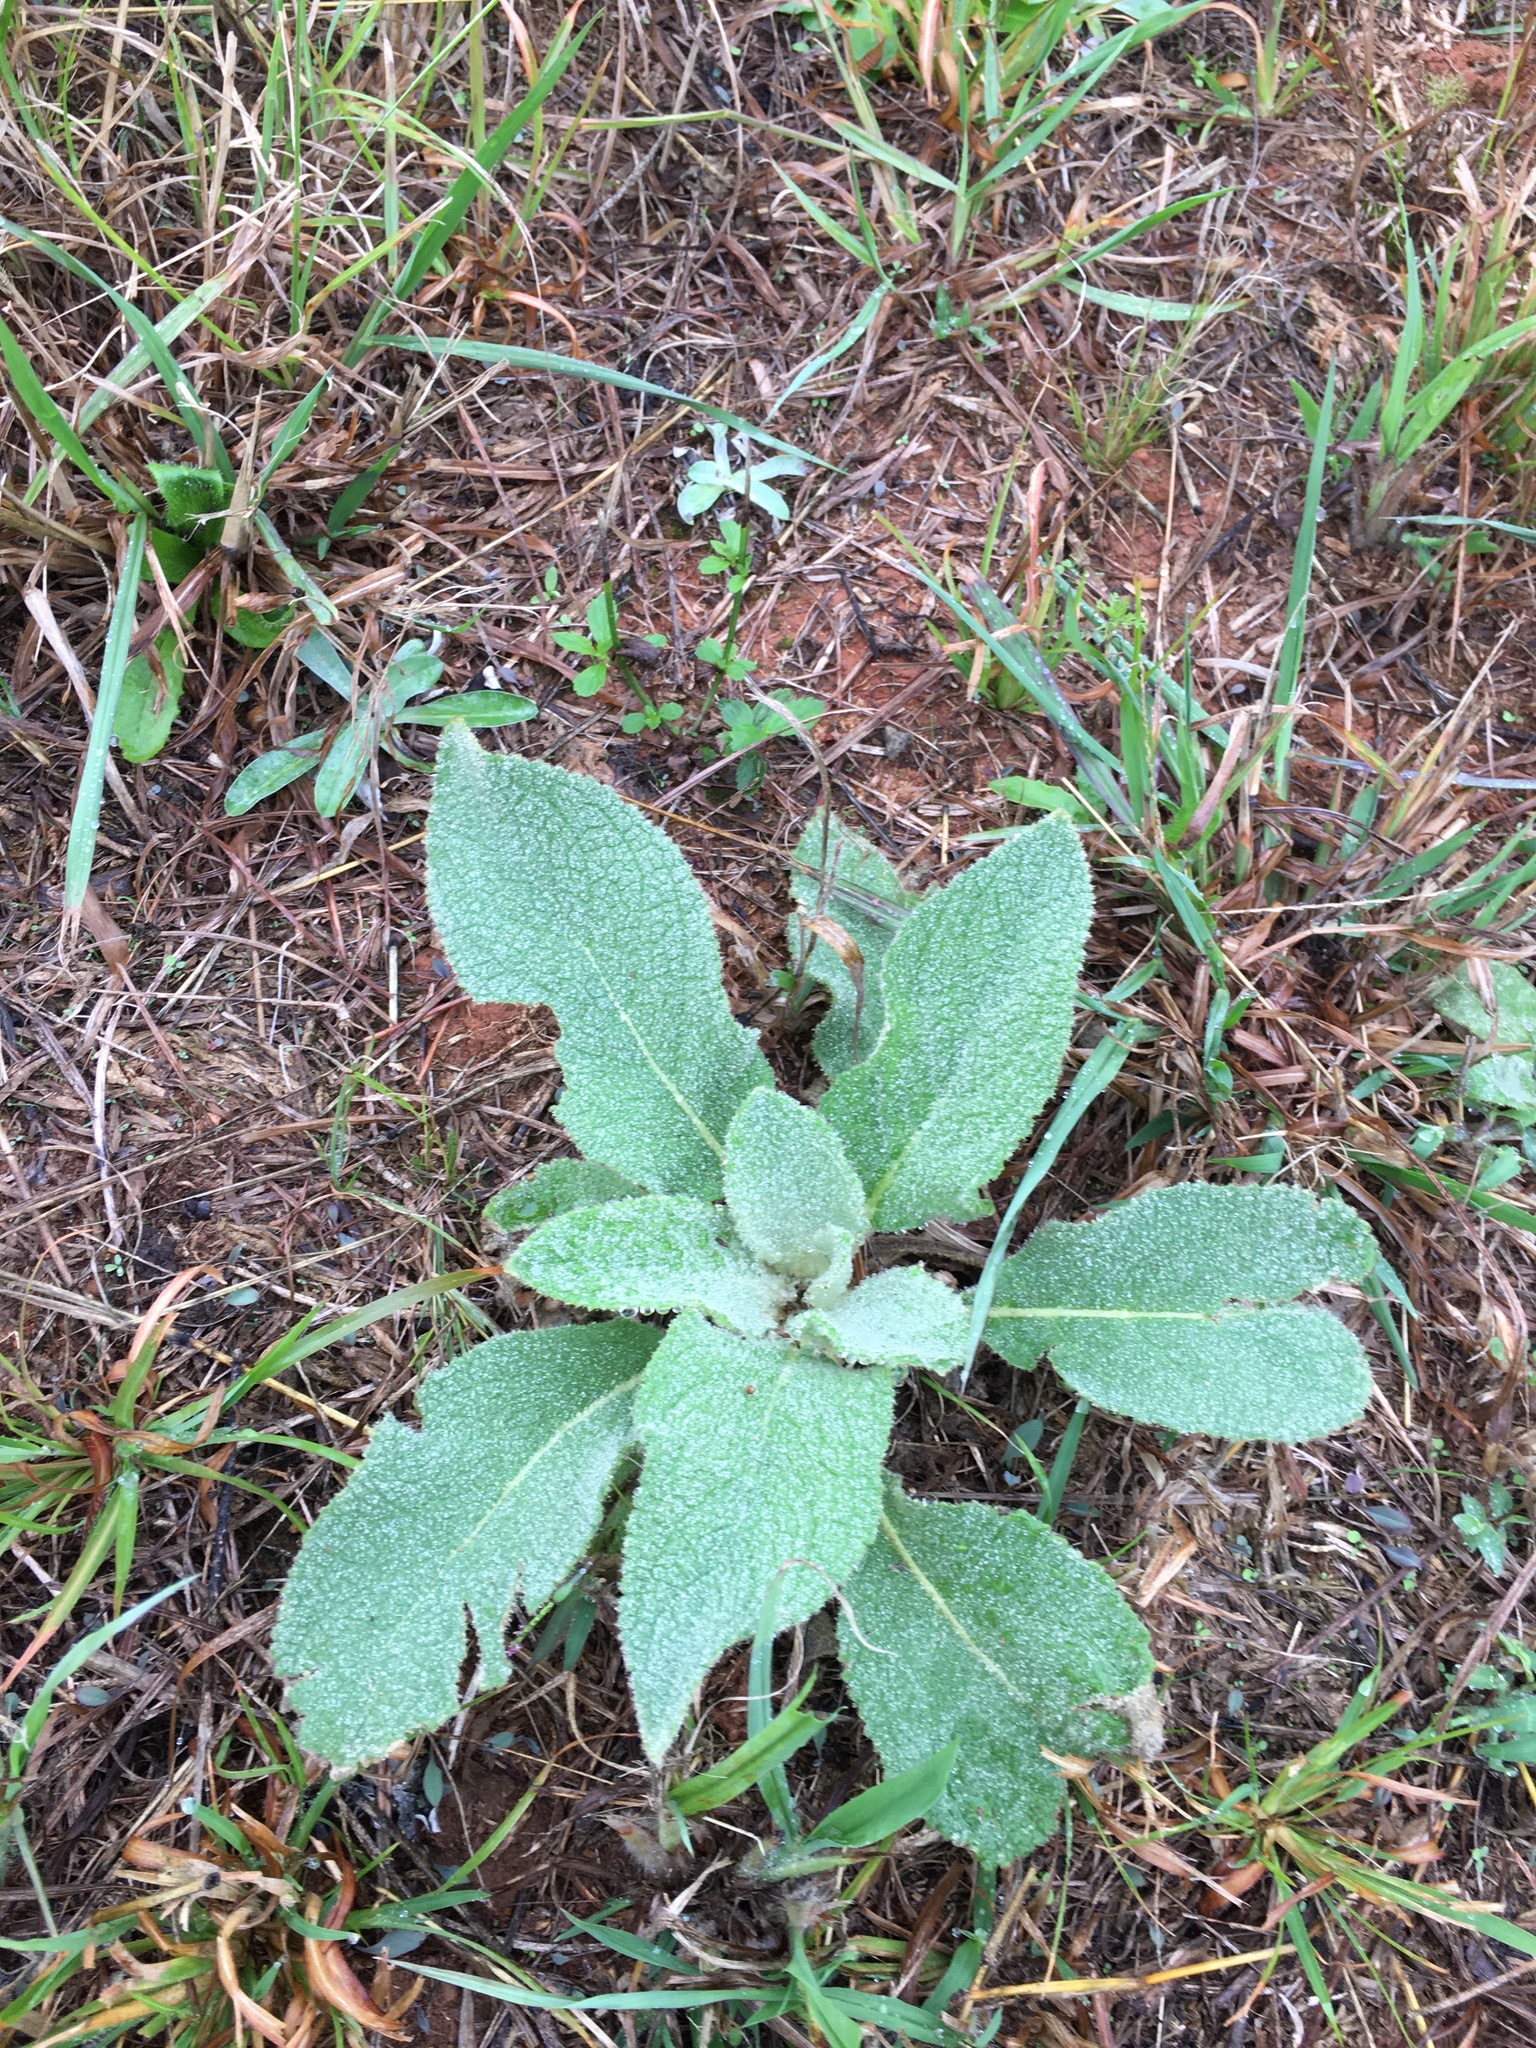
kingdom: Plantae
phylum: Tracheophyta
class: Magnoliopsida
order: Lamiales
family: Scrophulariaceae
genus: Verbascum
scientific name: Verbascum thapsus
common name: Common mullein
